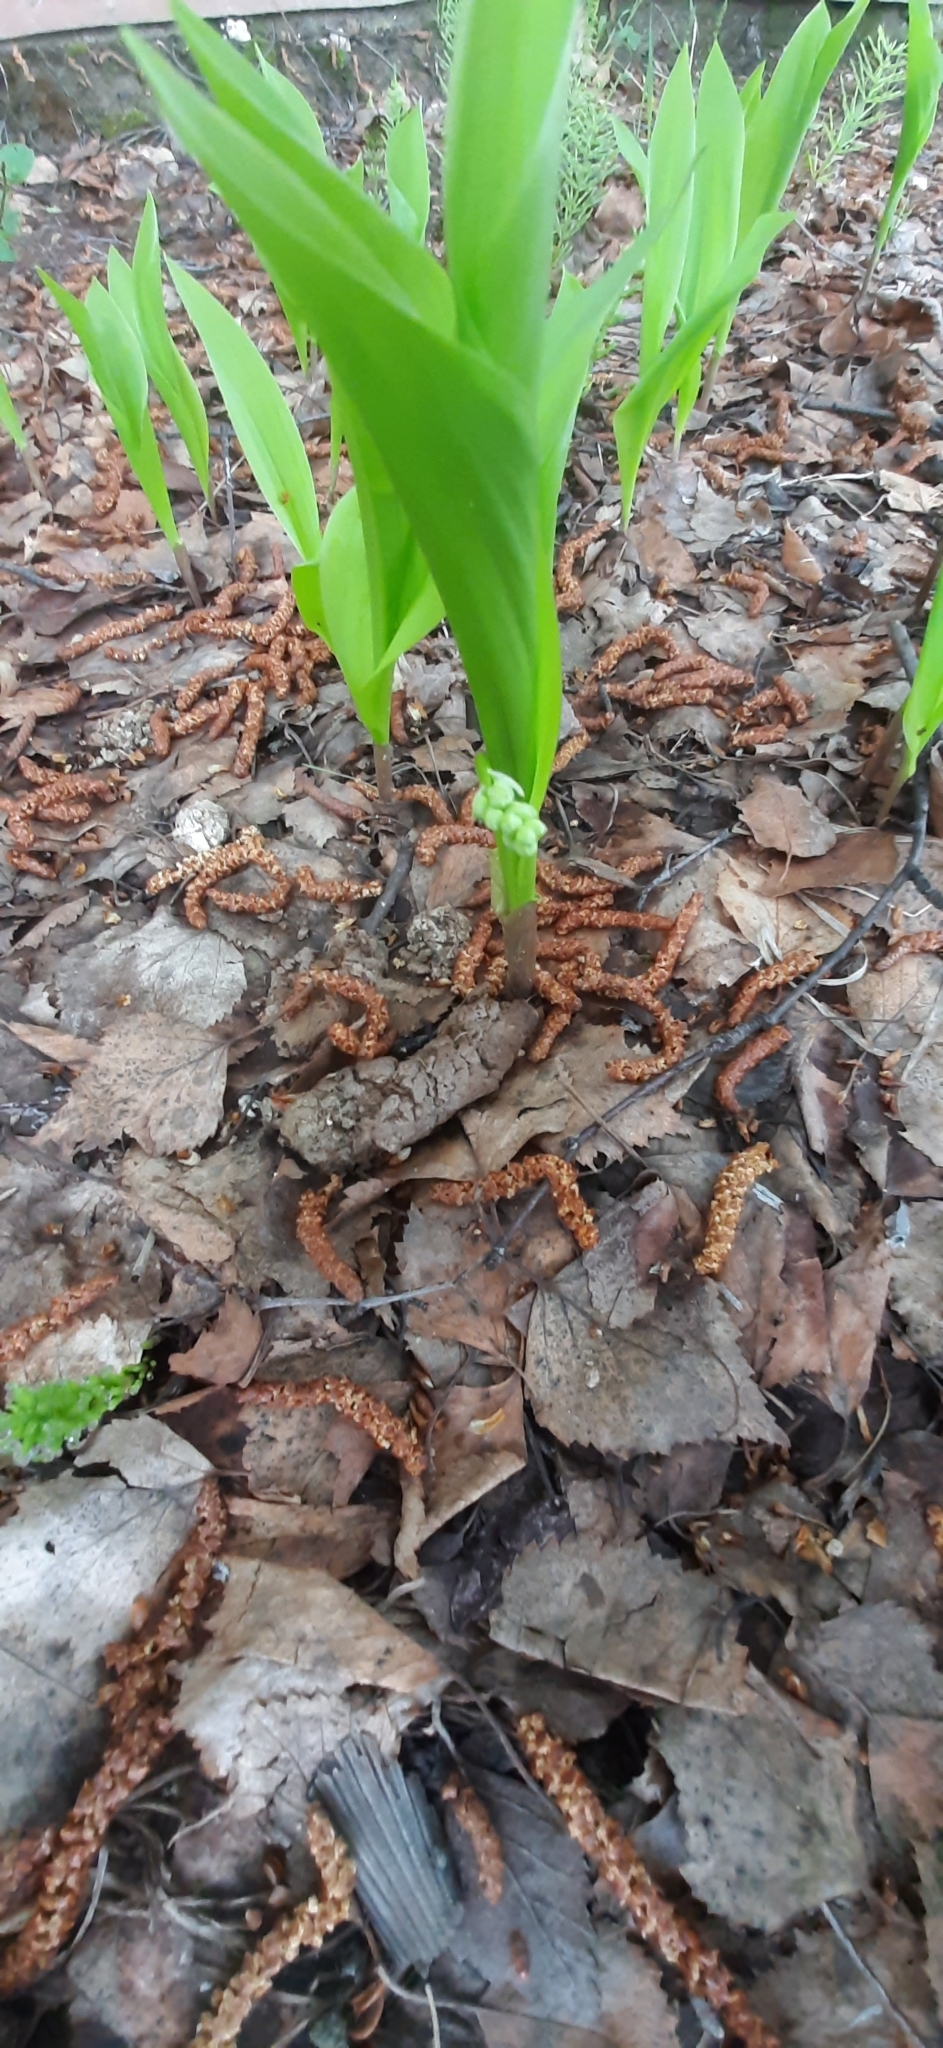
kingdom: Plantae
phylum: Tracheophyta
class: Liliopsida
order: Asparagales
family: Asparagaceae
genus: Convallaria
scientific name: Convallaria majalis
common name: Lily-of-the-valley
